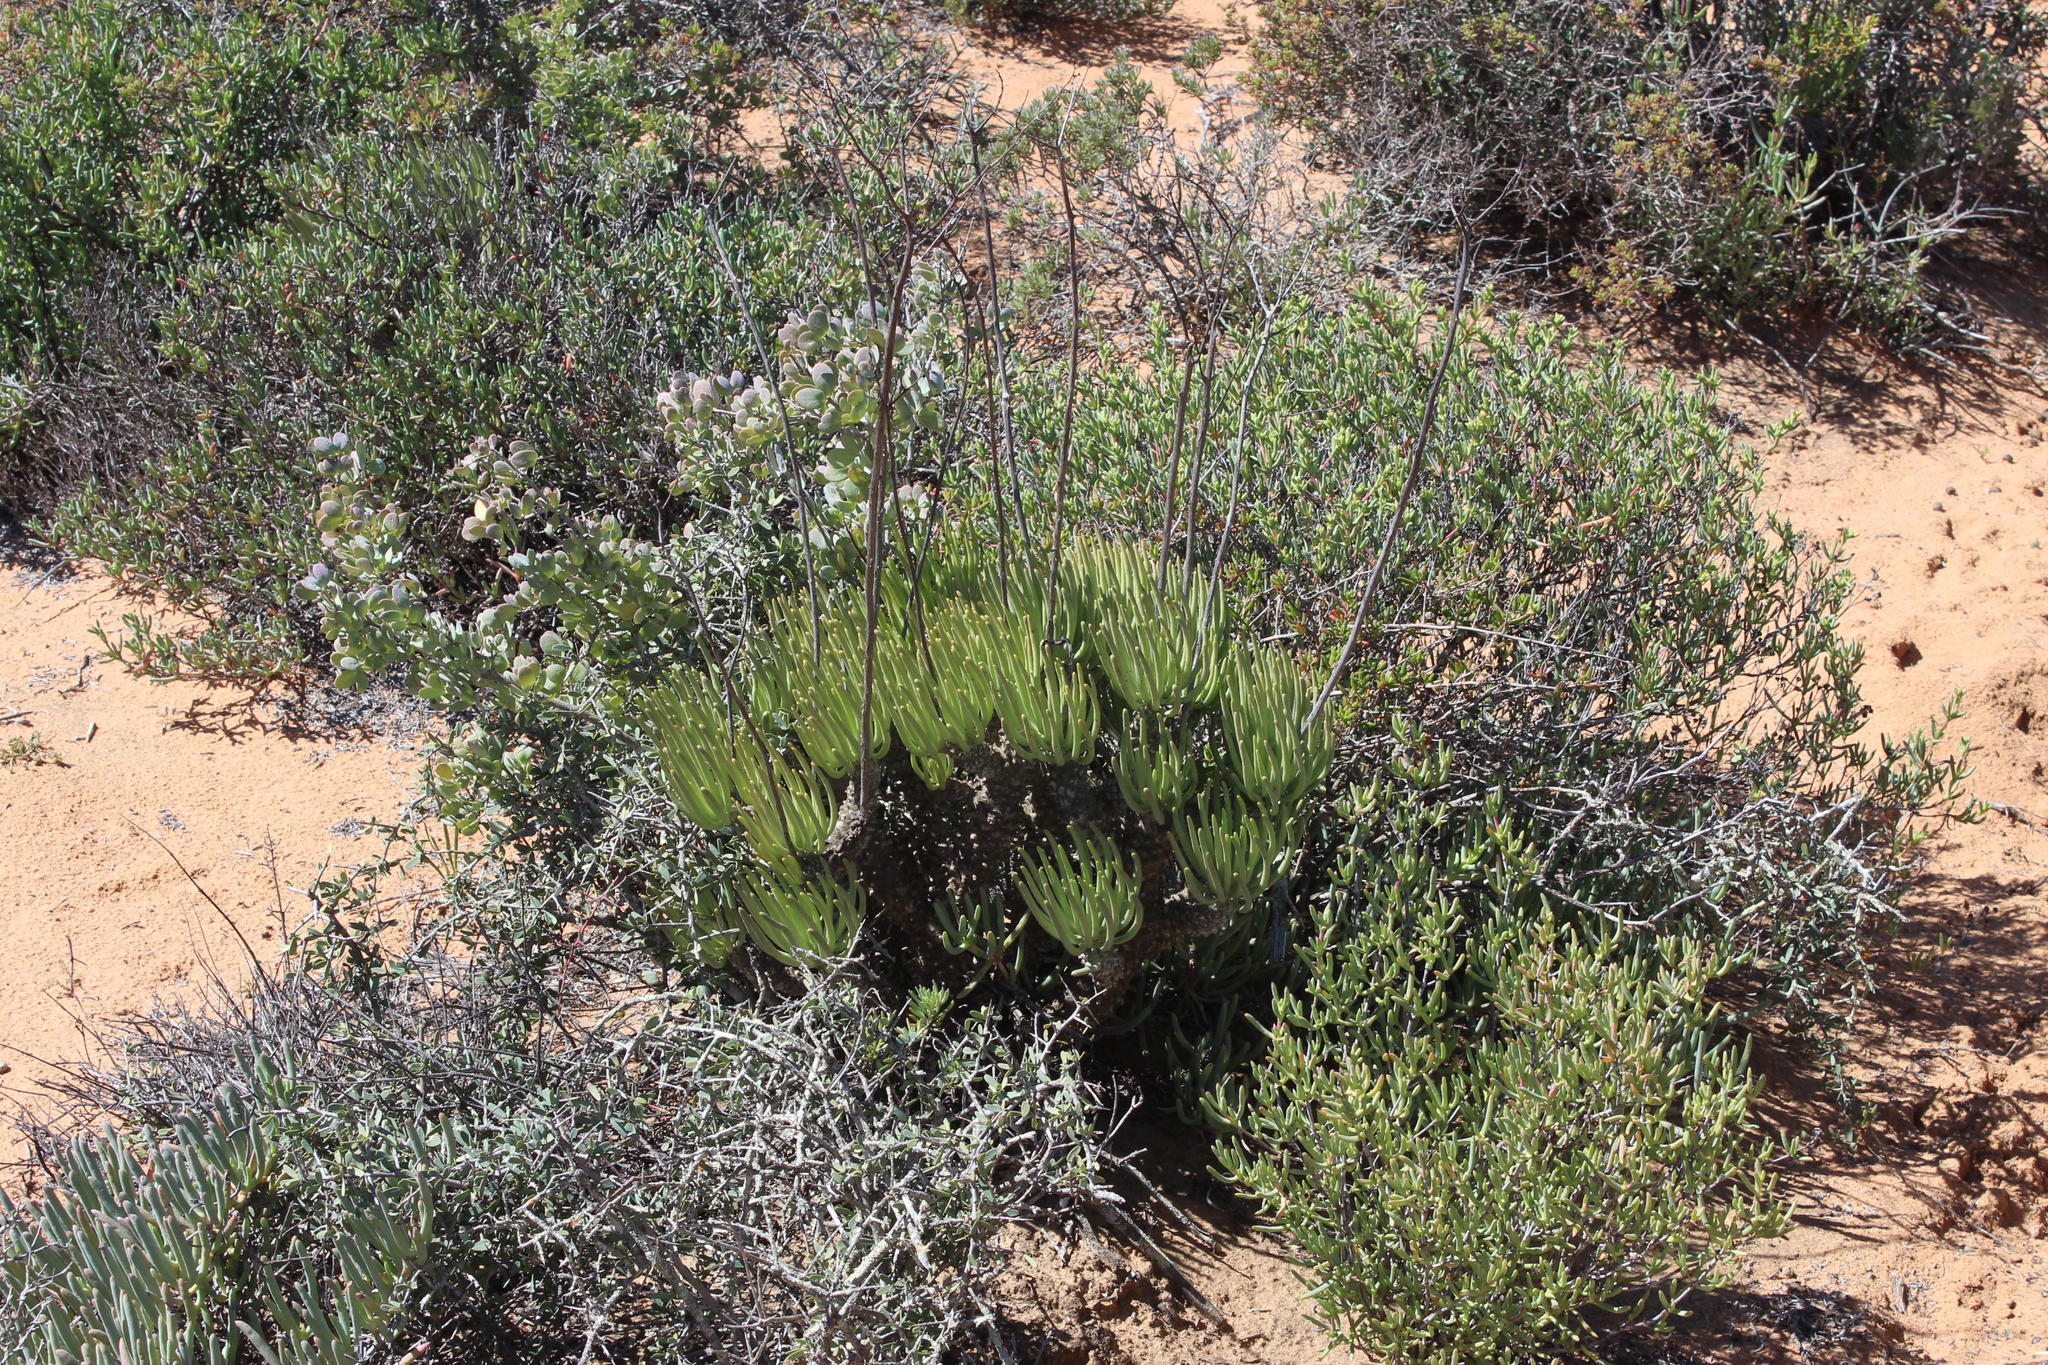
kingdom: Plantae
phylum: Tracheophyta
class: Magnoliopsida
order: Saxifragales
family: Crassulaceae
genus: Tylecodon
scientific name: Tylecodon wallichii
